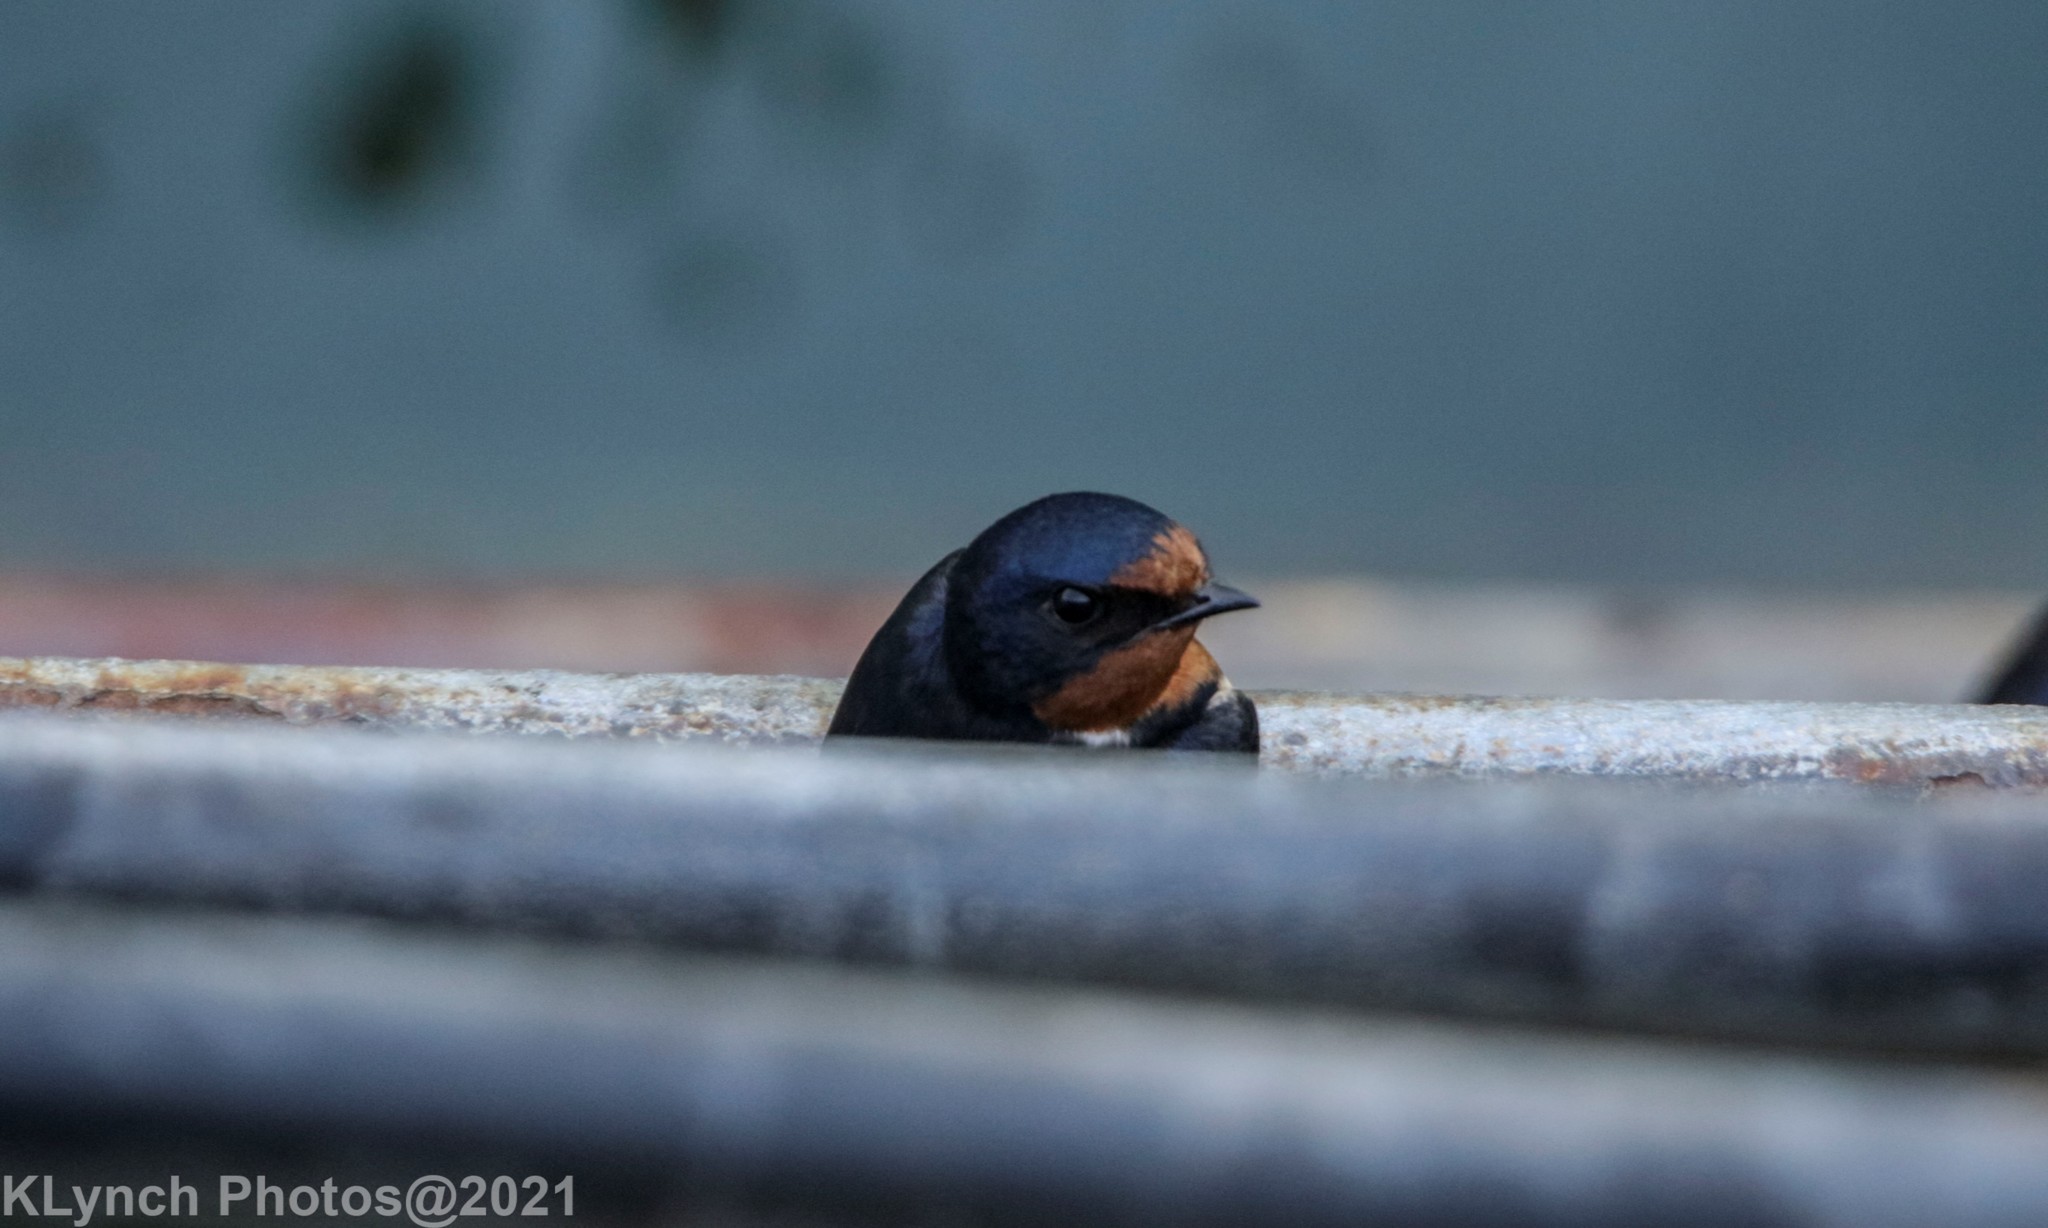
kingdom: Animalia
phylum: Chordata
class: Aves
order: Passeriformes
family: Hirundinidae
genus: Hirundo
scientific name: Hirundo rustica
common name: Barn swallow
